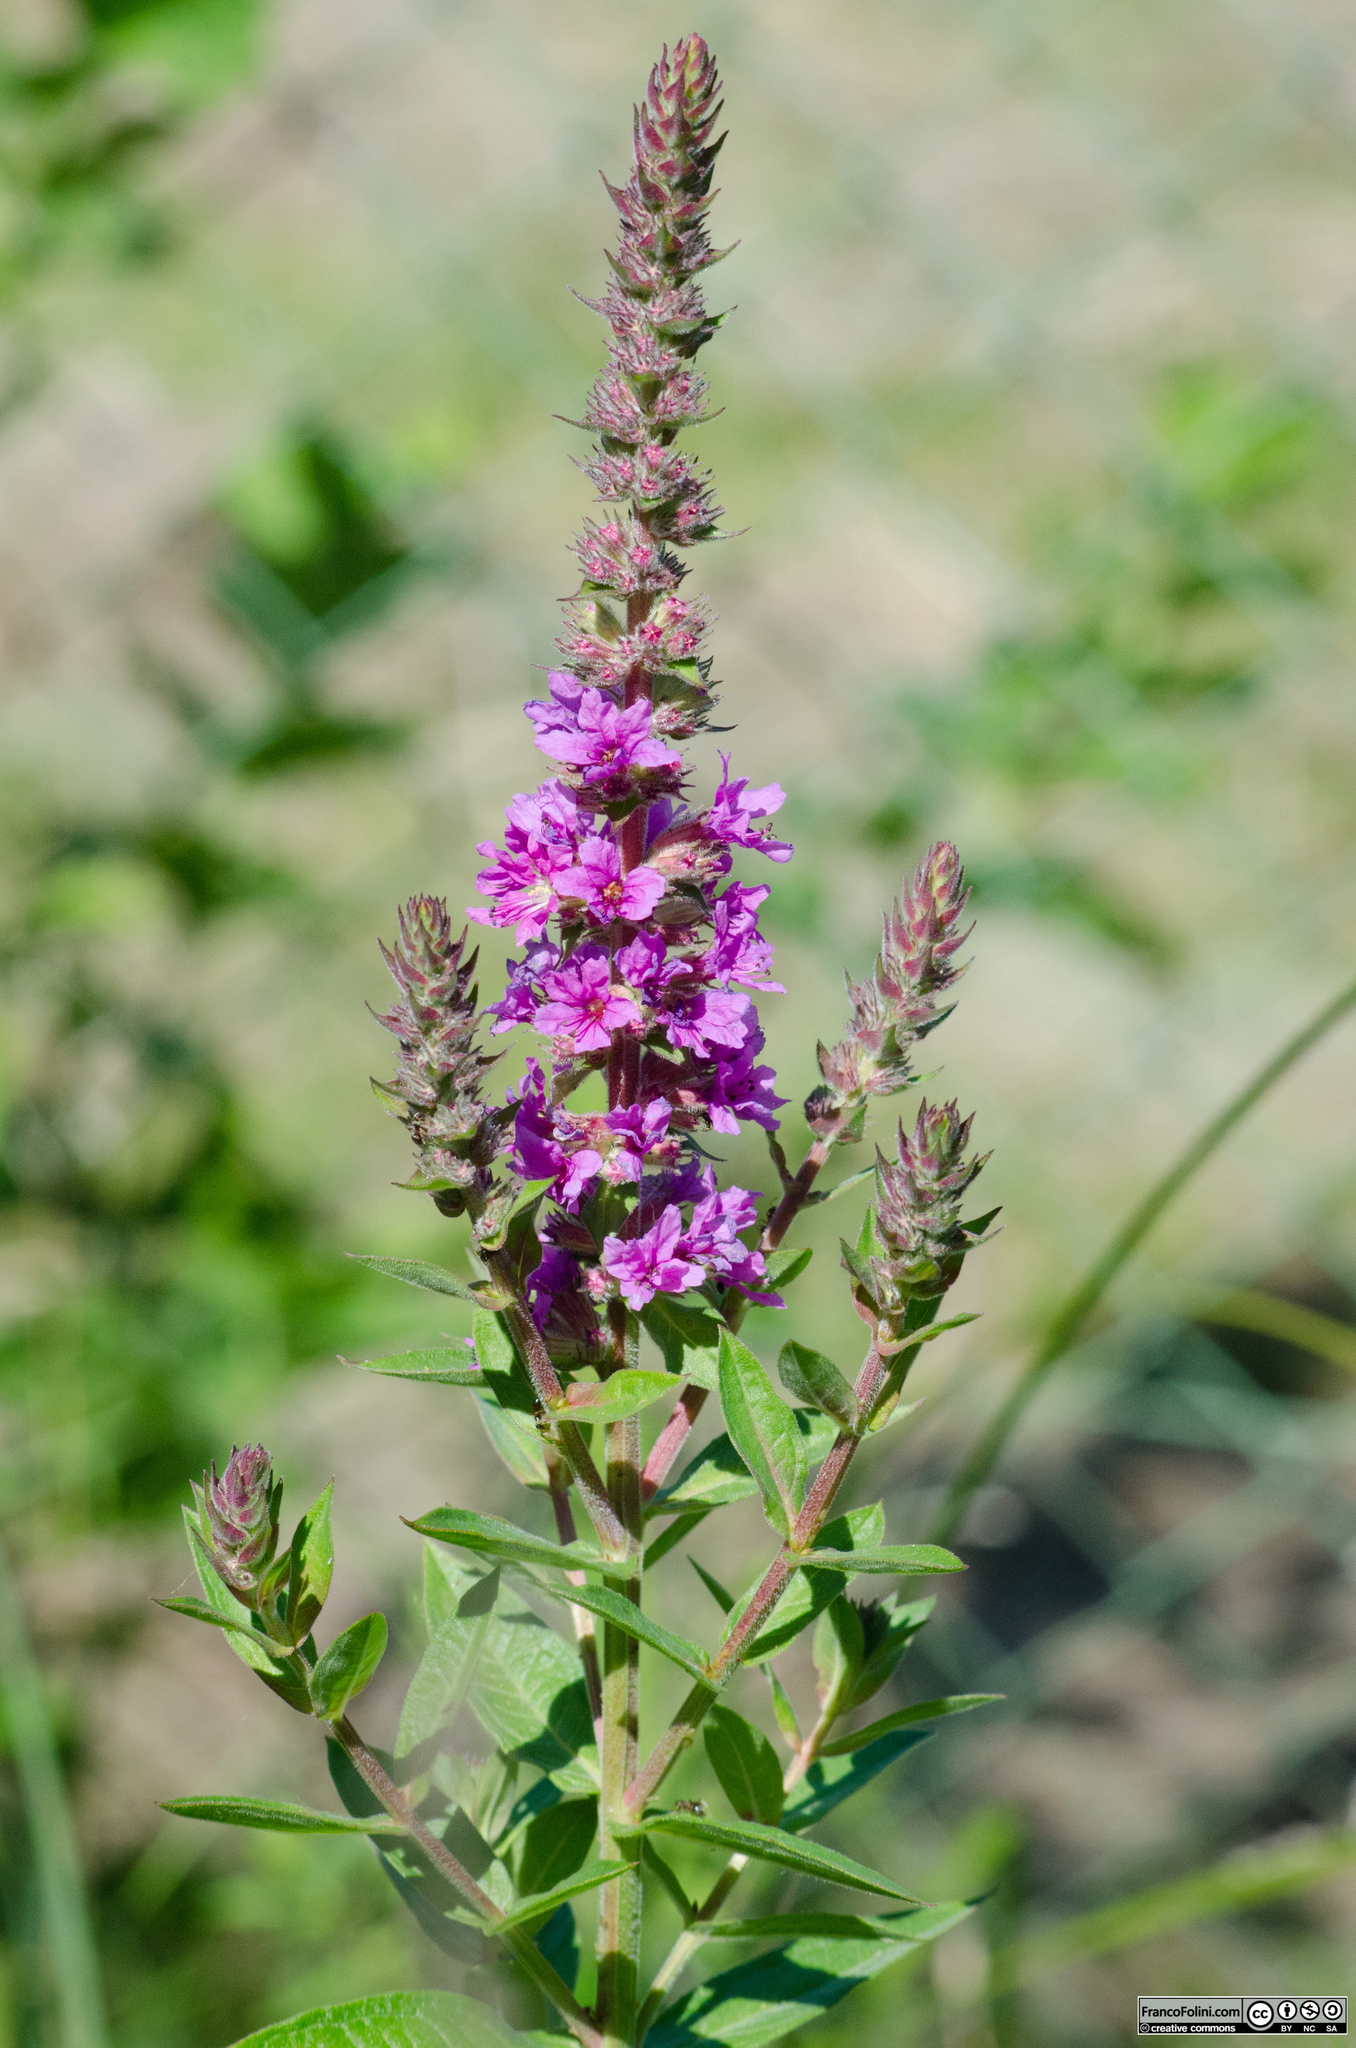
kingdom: Plantae
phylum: Tracheophyta
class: Magnoliopsida
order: Myrtales
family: Lythraceae
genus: Lythrum
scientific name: Lythrum salicaria
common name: Purple loosestrife
